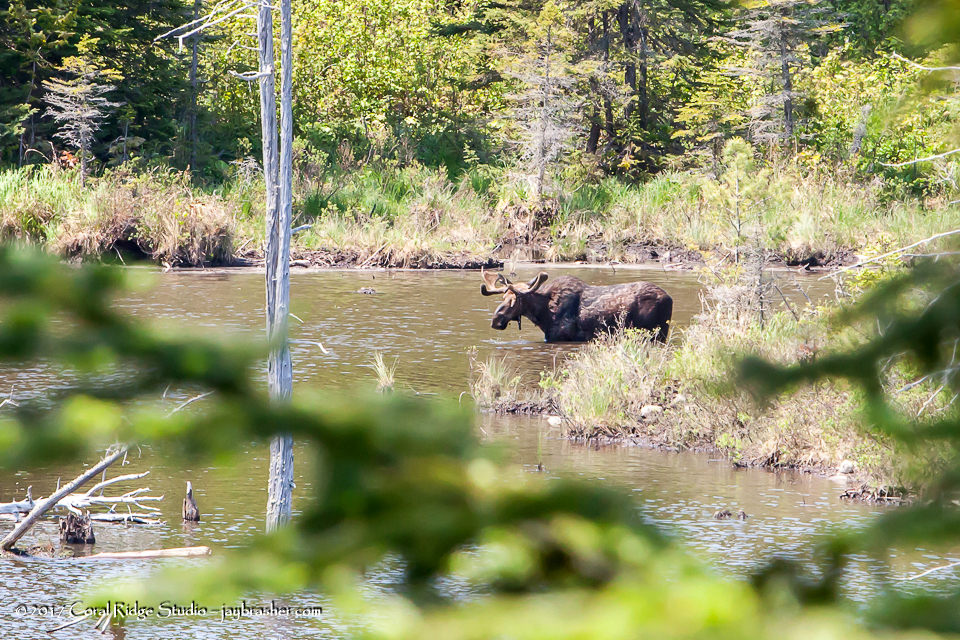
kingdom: Animalia
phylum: Chordata
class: Mammalia
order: Artiodactyla
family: Cervidae
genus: Alces
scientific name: Alces alces
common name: Moose
